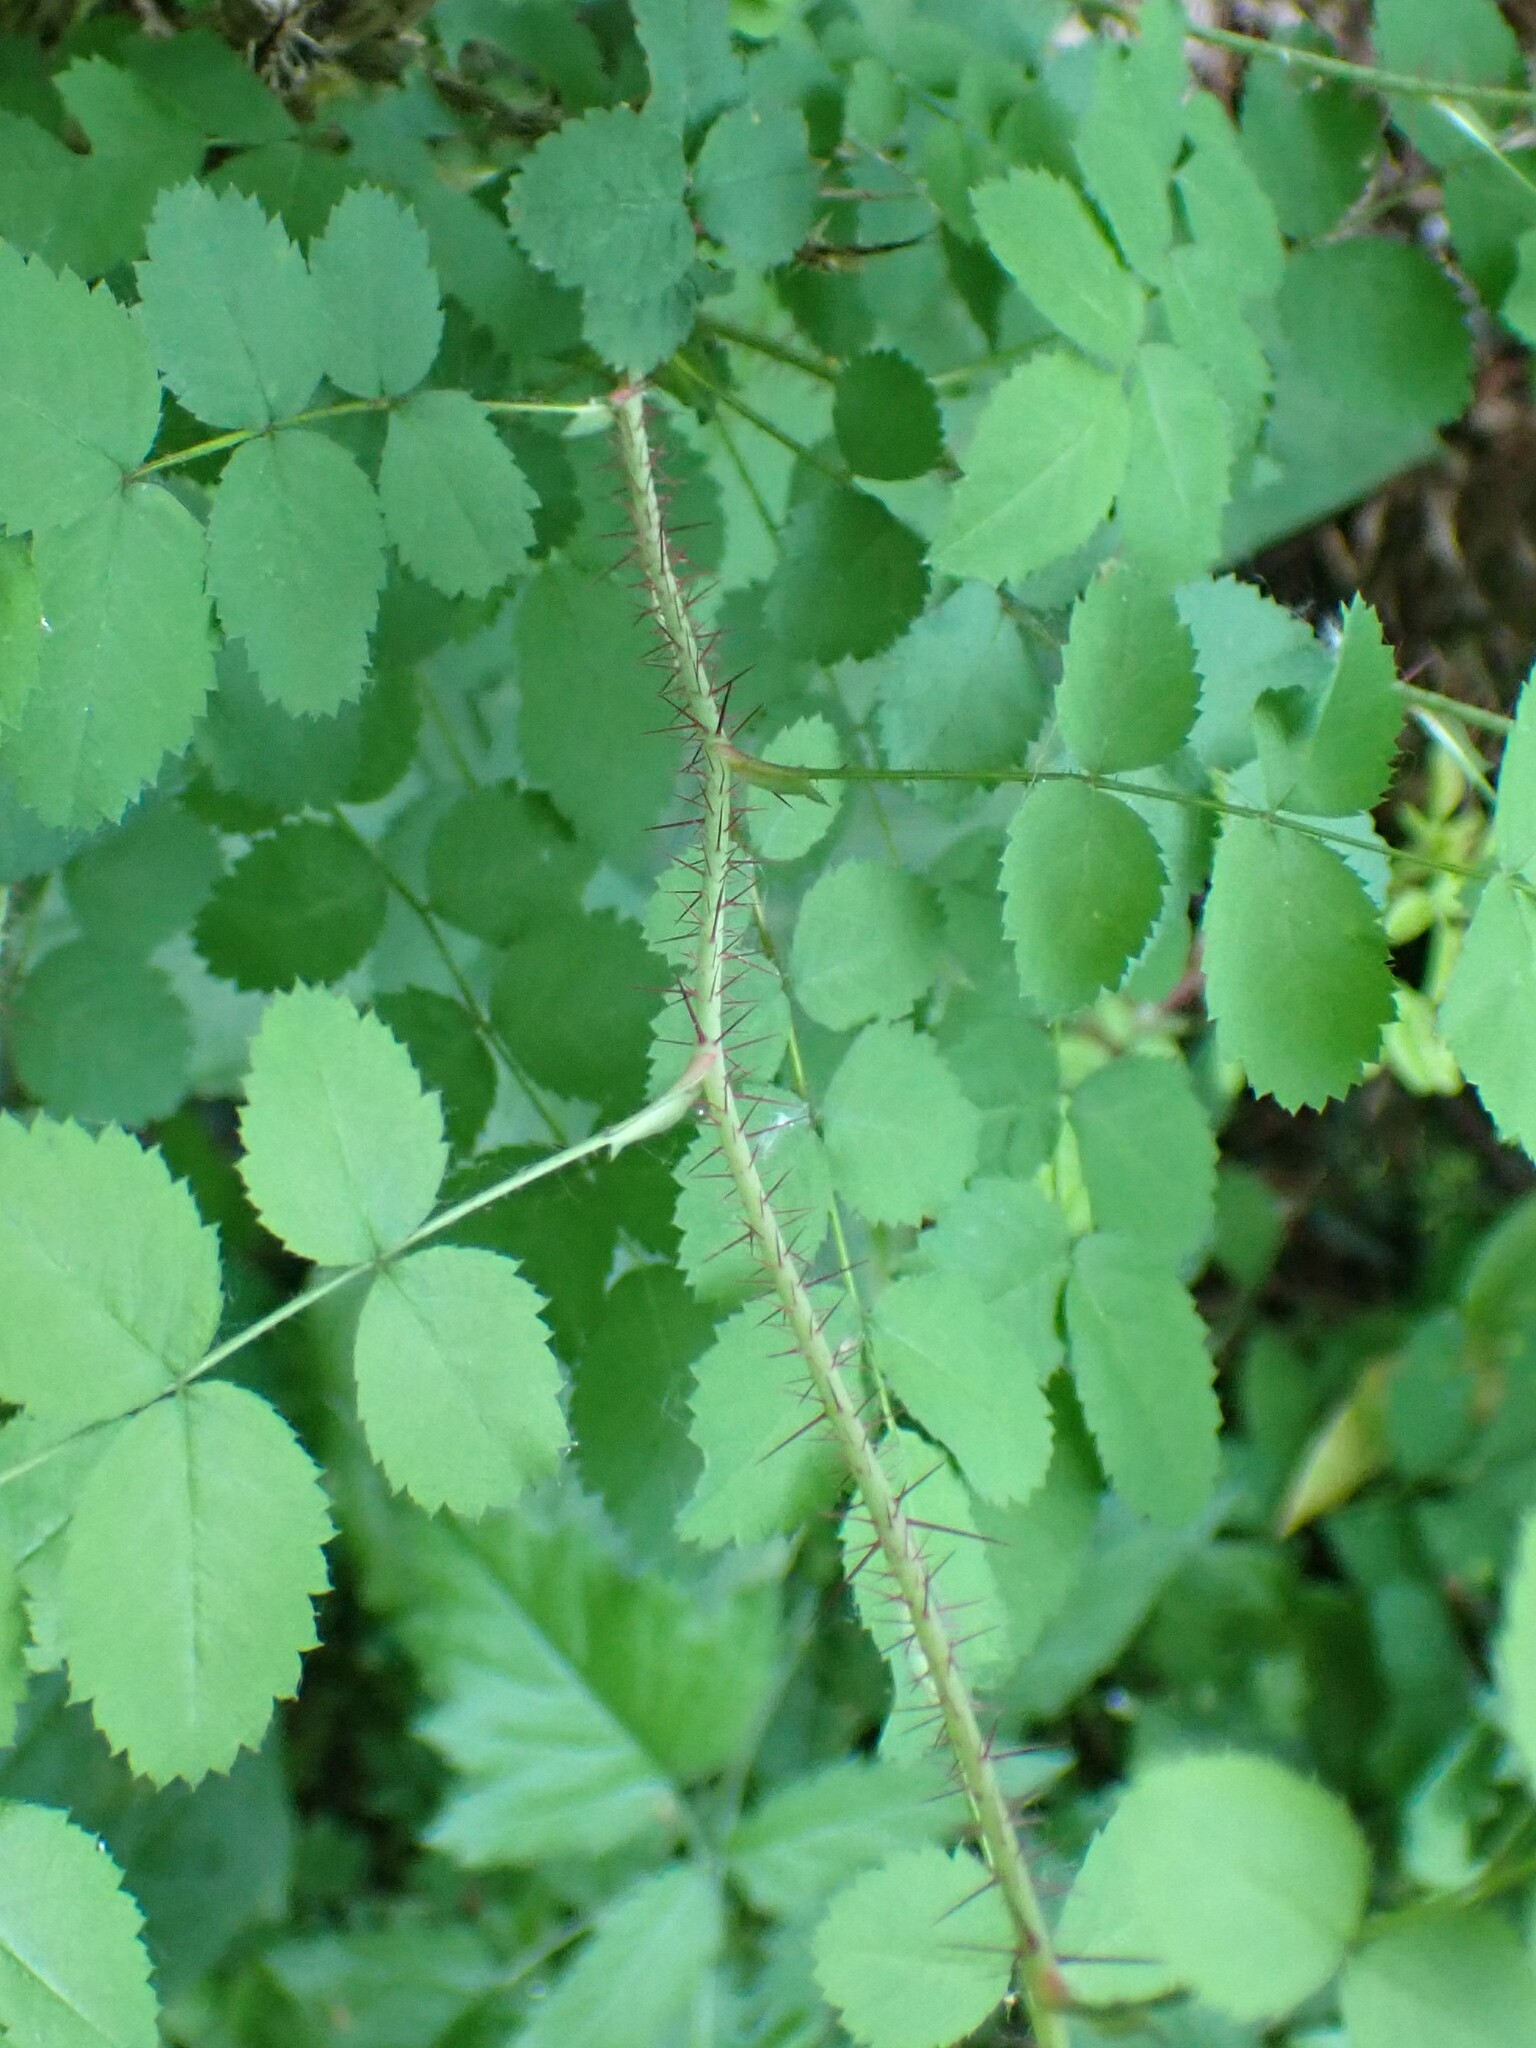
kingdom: Plantae
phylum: Tracheophyta
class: Magnoliopsida
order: Rosales
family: Rosaceae
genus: Rosa
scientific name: Rosa gymnocarpa
